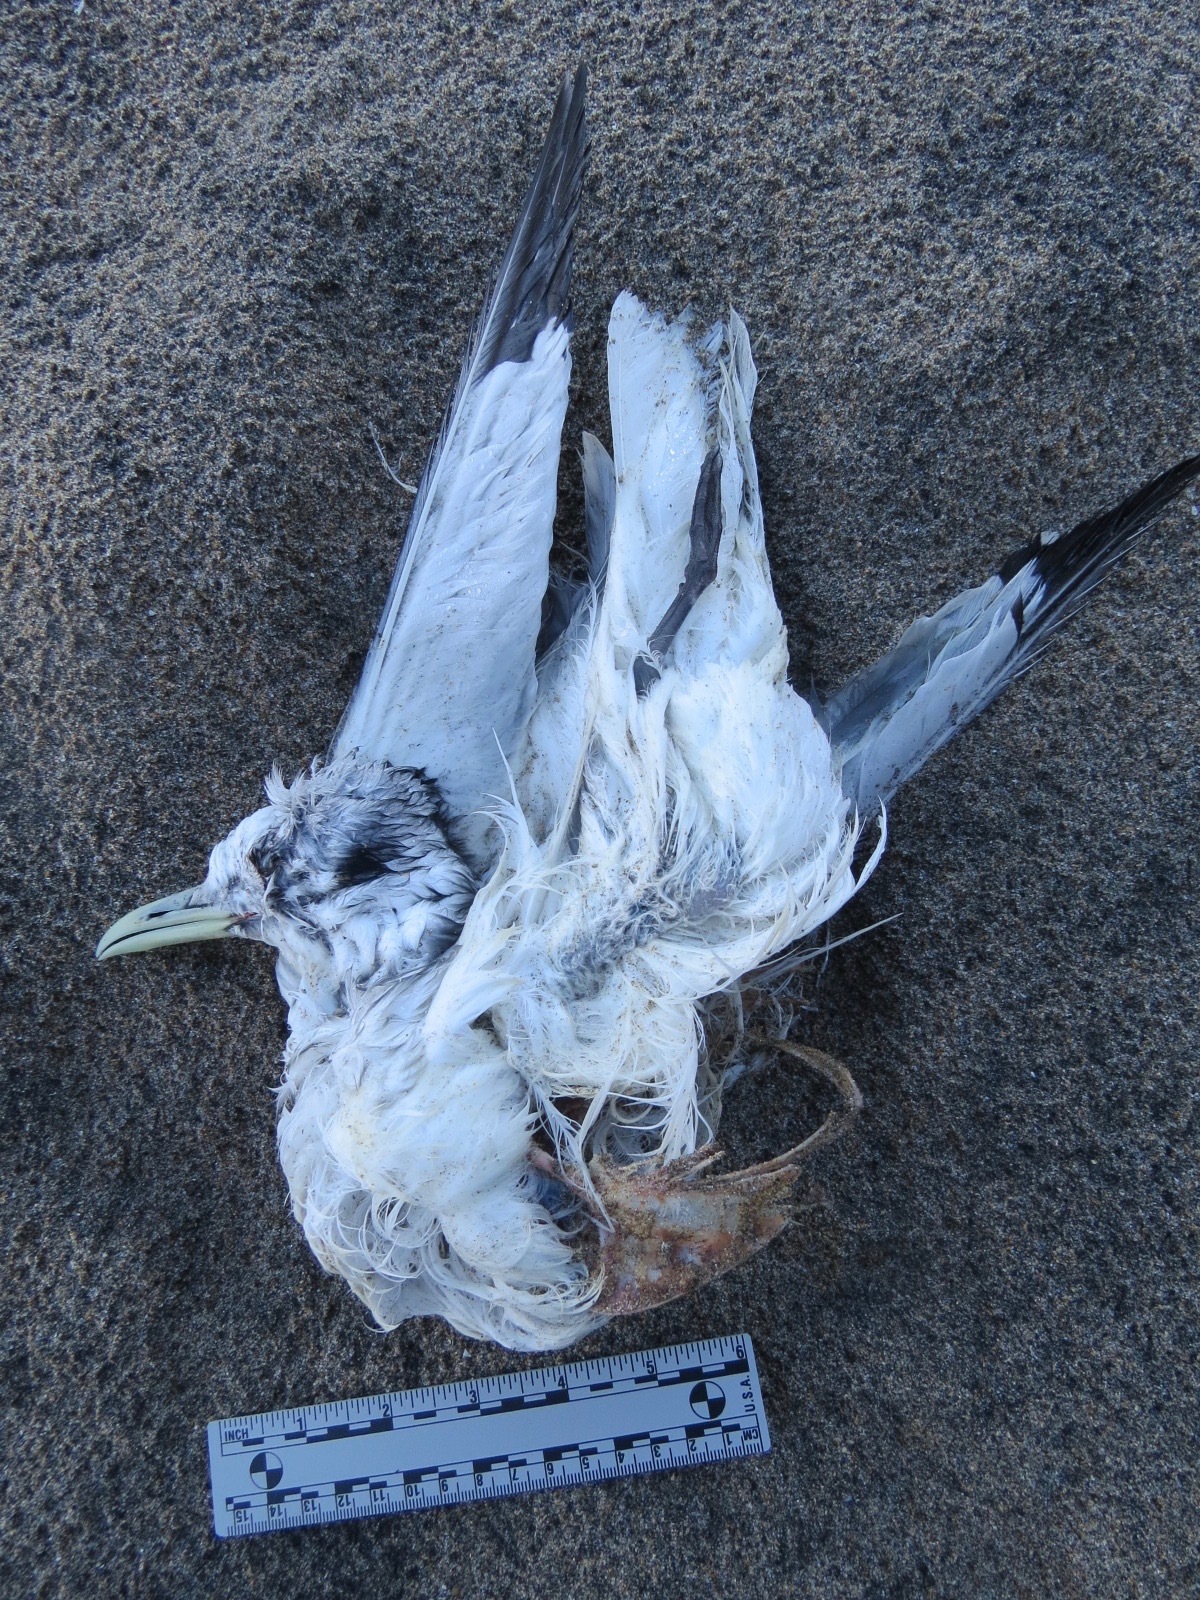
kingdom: Animalia
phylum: Chordata
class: Aves
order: Charadriiformes
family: Laridae
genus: Rissa
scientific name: Rissa tridactyla
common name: Black-legged kittiwake
